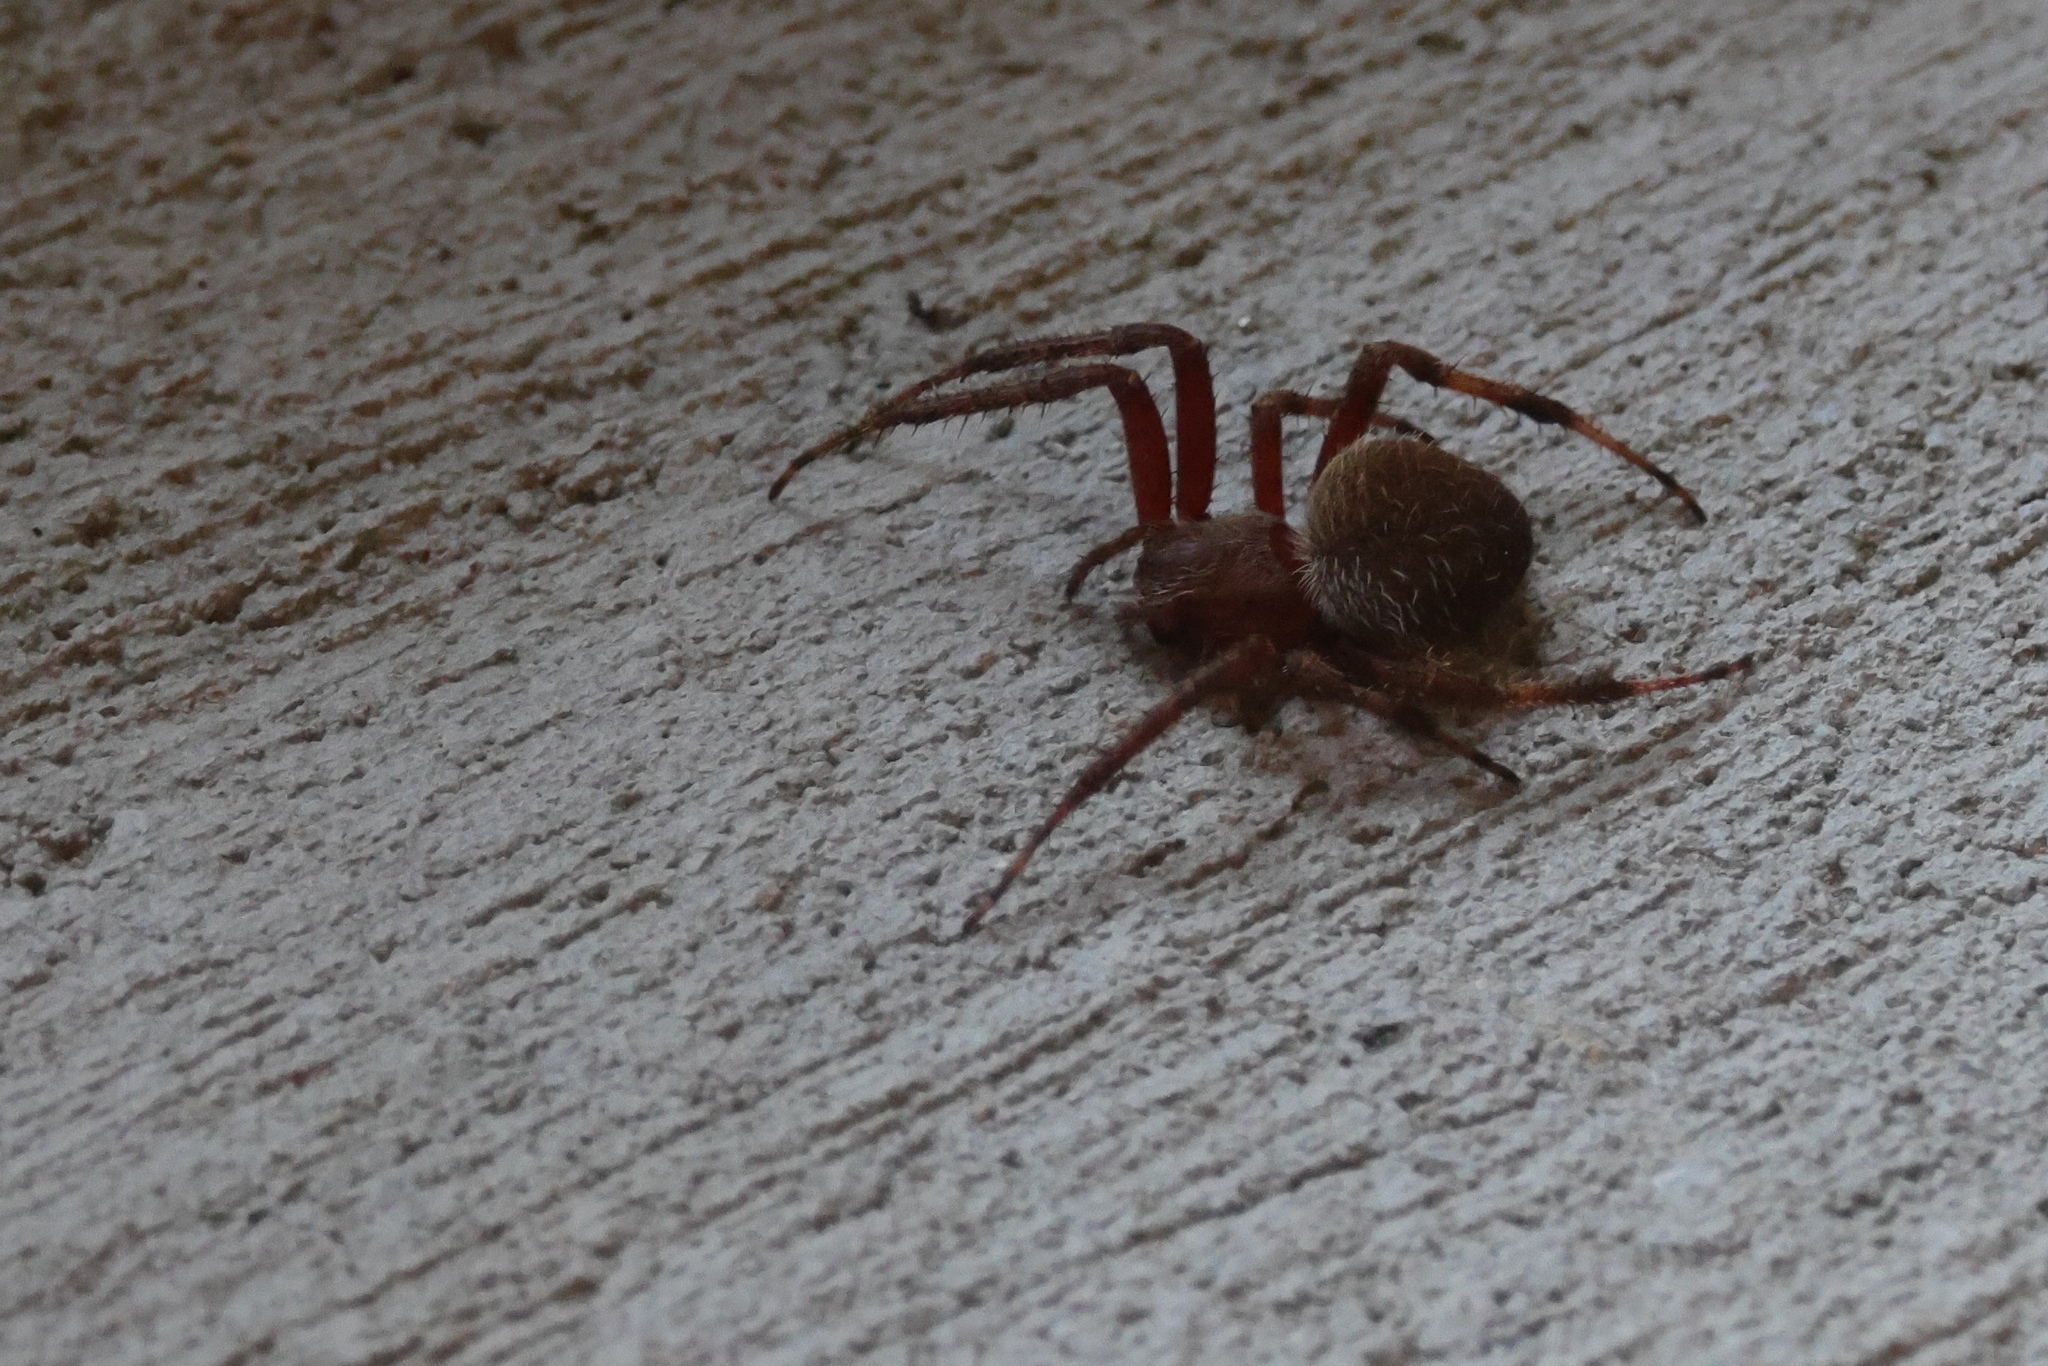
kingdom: Animalia
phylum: Arthropoda
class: Arachnida
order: Araneae
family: Araneidae
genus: Neoscona
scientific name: Neoscona crucifera
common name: Spotted orbweaver
